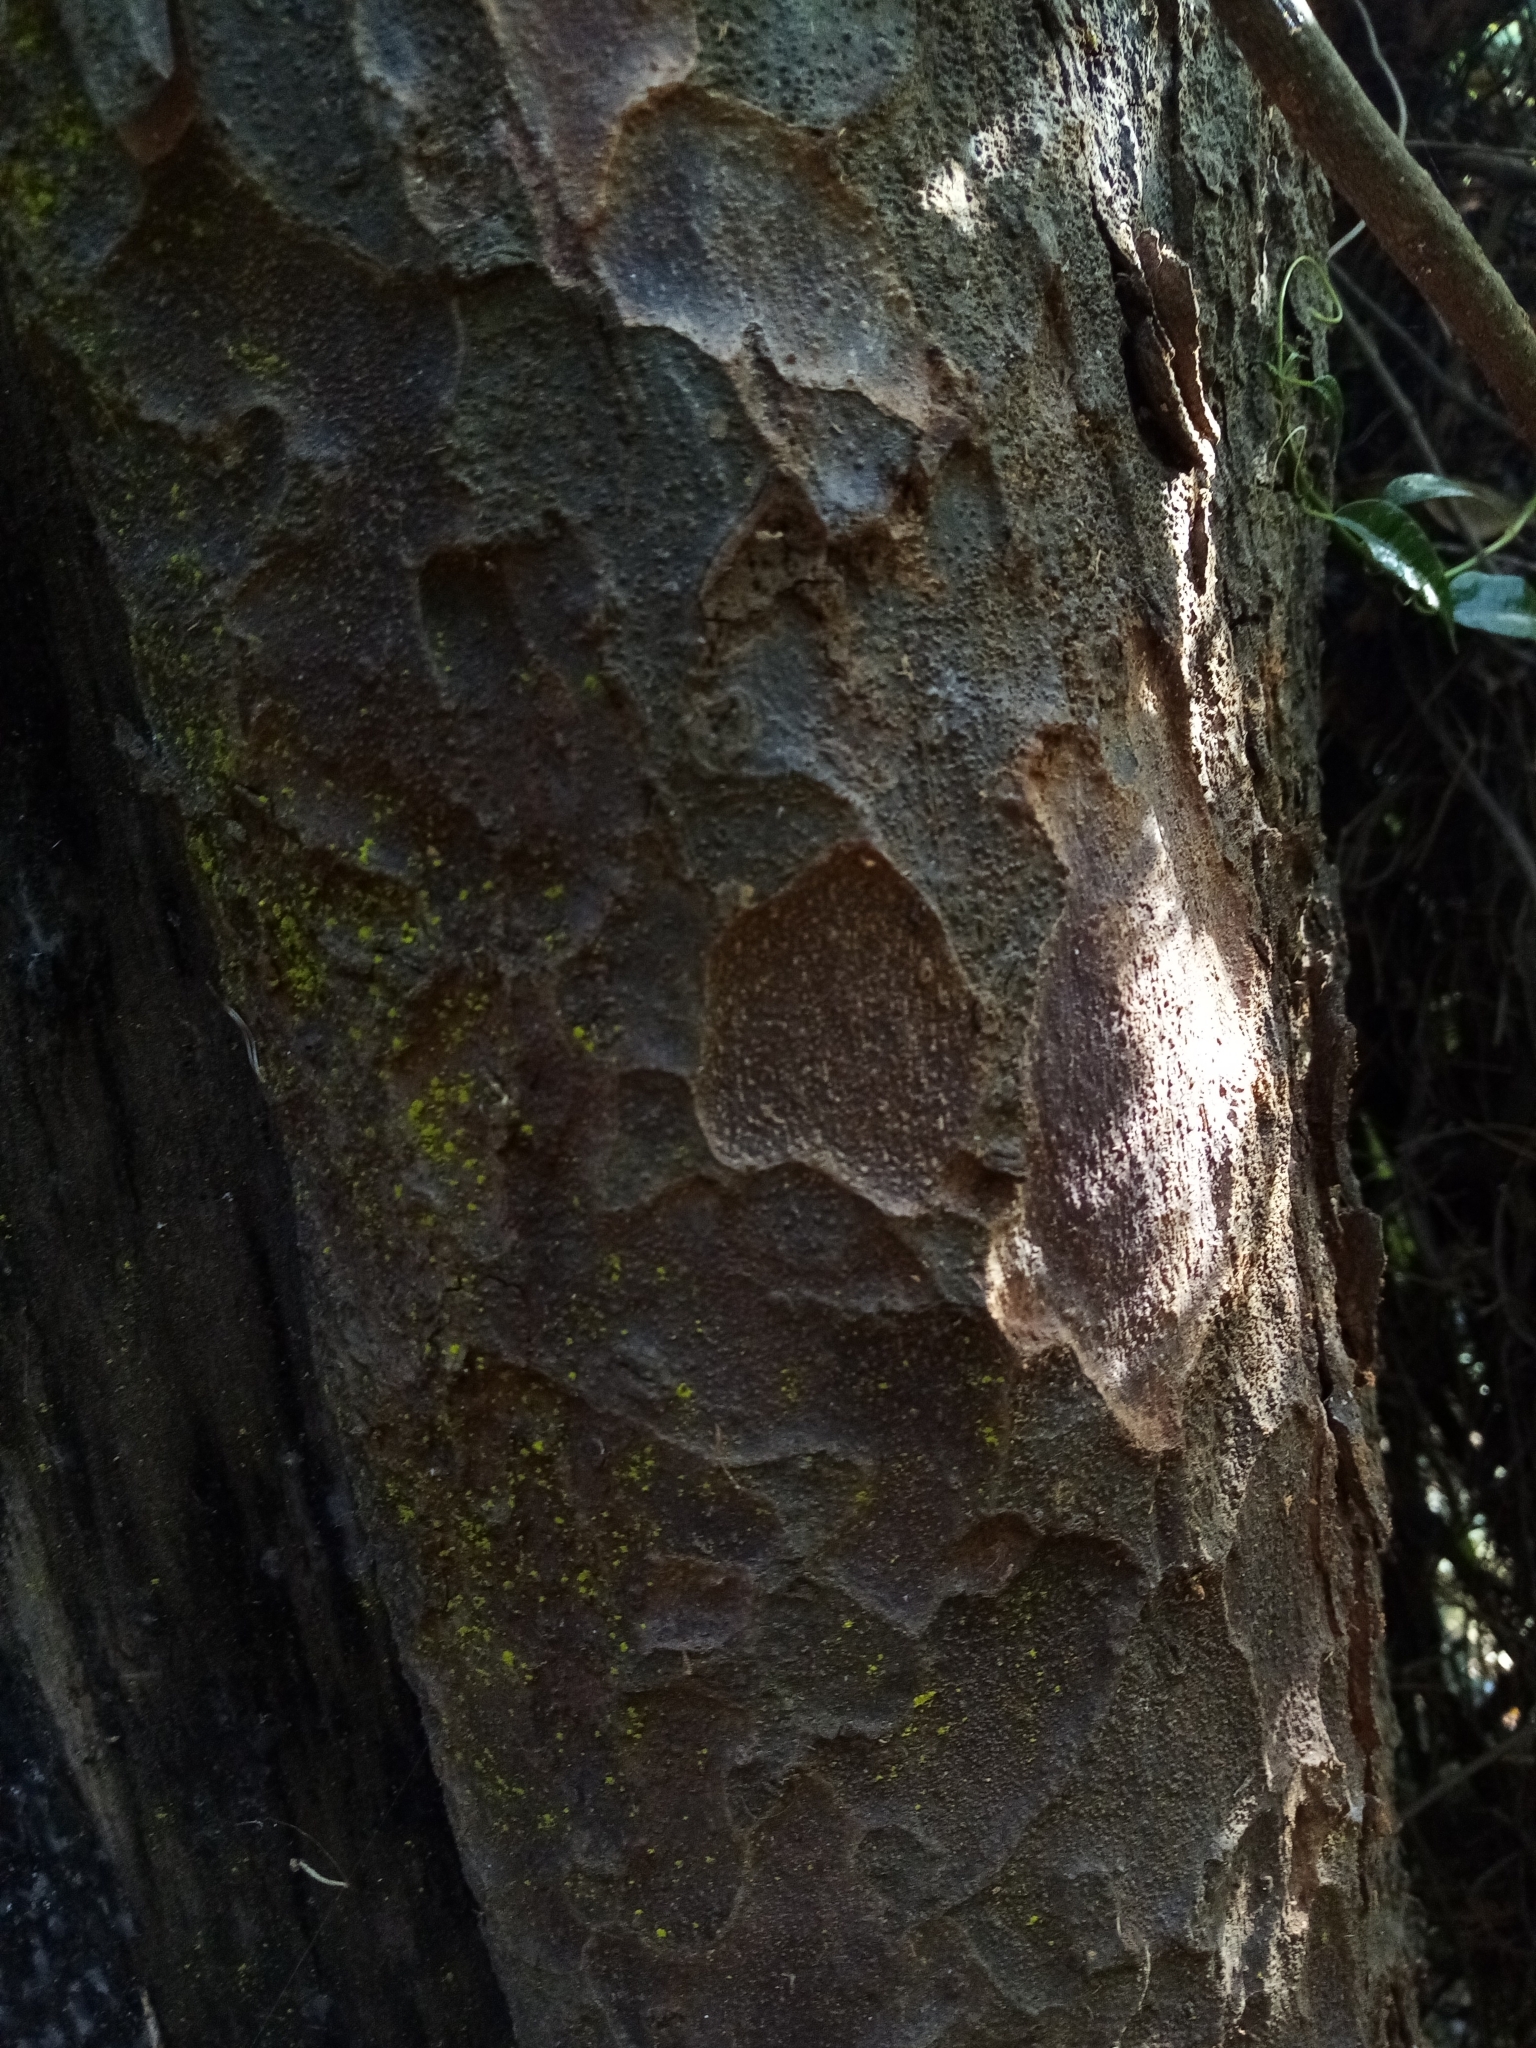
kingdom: Plantae
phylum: Tracheophyta
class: Pinopsida
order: Pinales
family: Podocarpaceae
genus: Prumnopitys
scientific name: Prumnopitys taxifolia
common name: Matai
